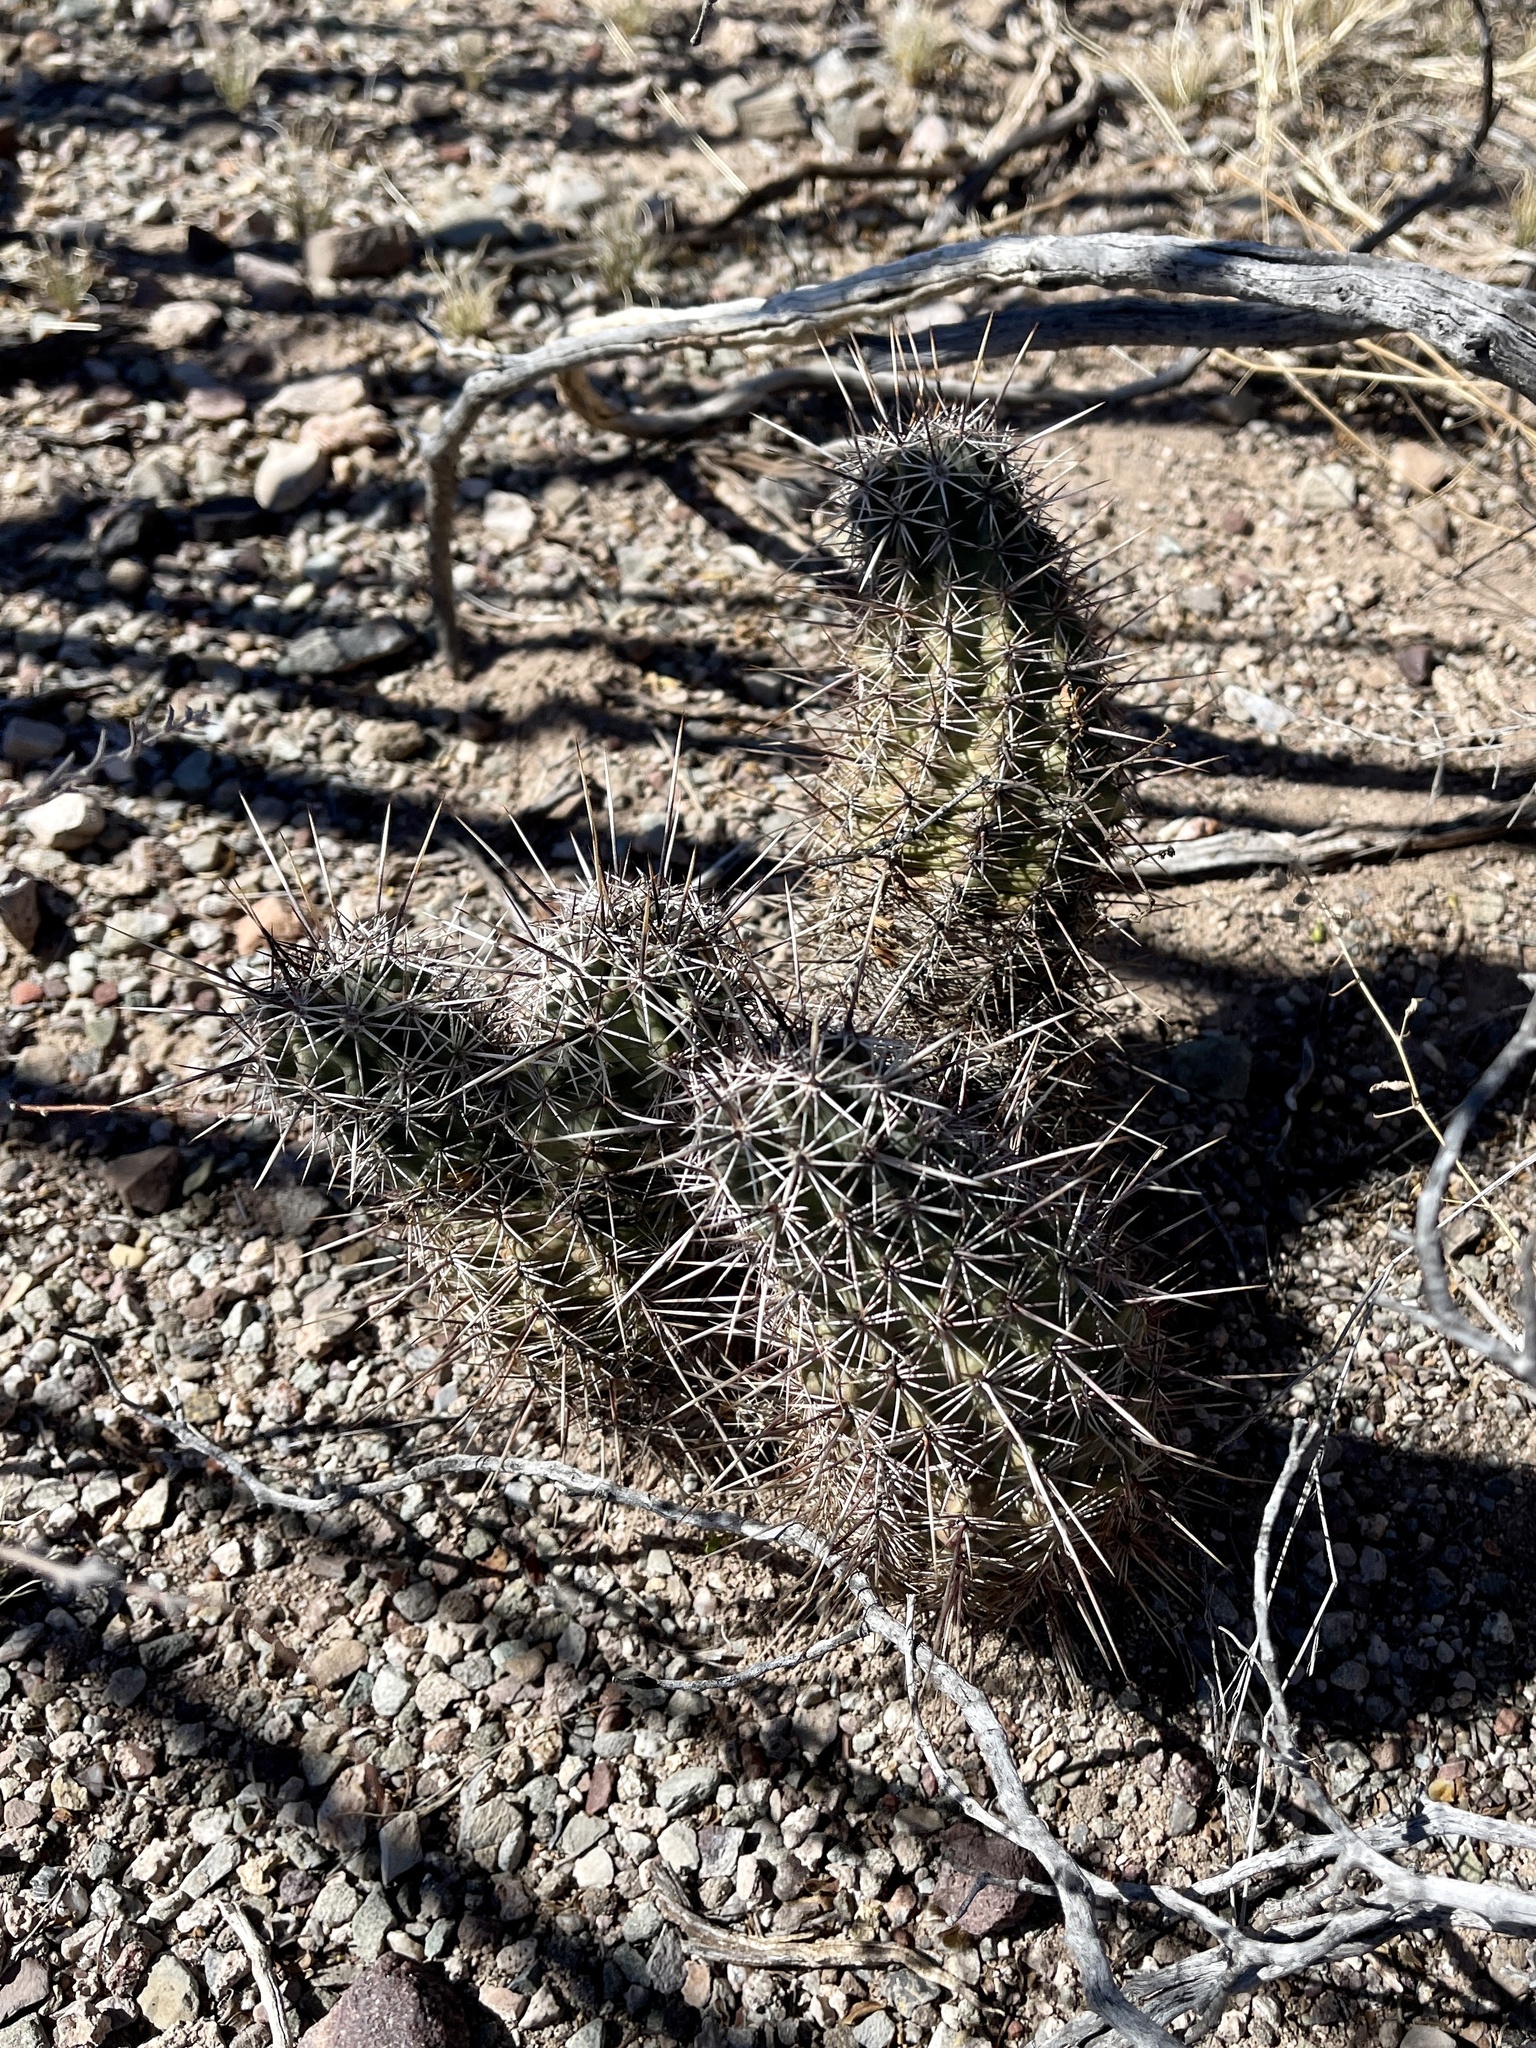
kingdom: Plantae
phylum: Tracheophyta
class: Magnoliopsida
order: Caryophyllales
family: Cactaceae
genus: Echinocereus
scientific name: Echinocereus fasciculatus
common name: Bundle hedgehog
